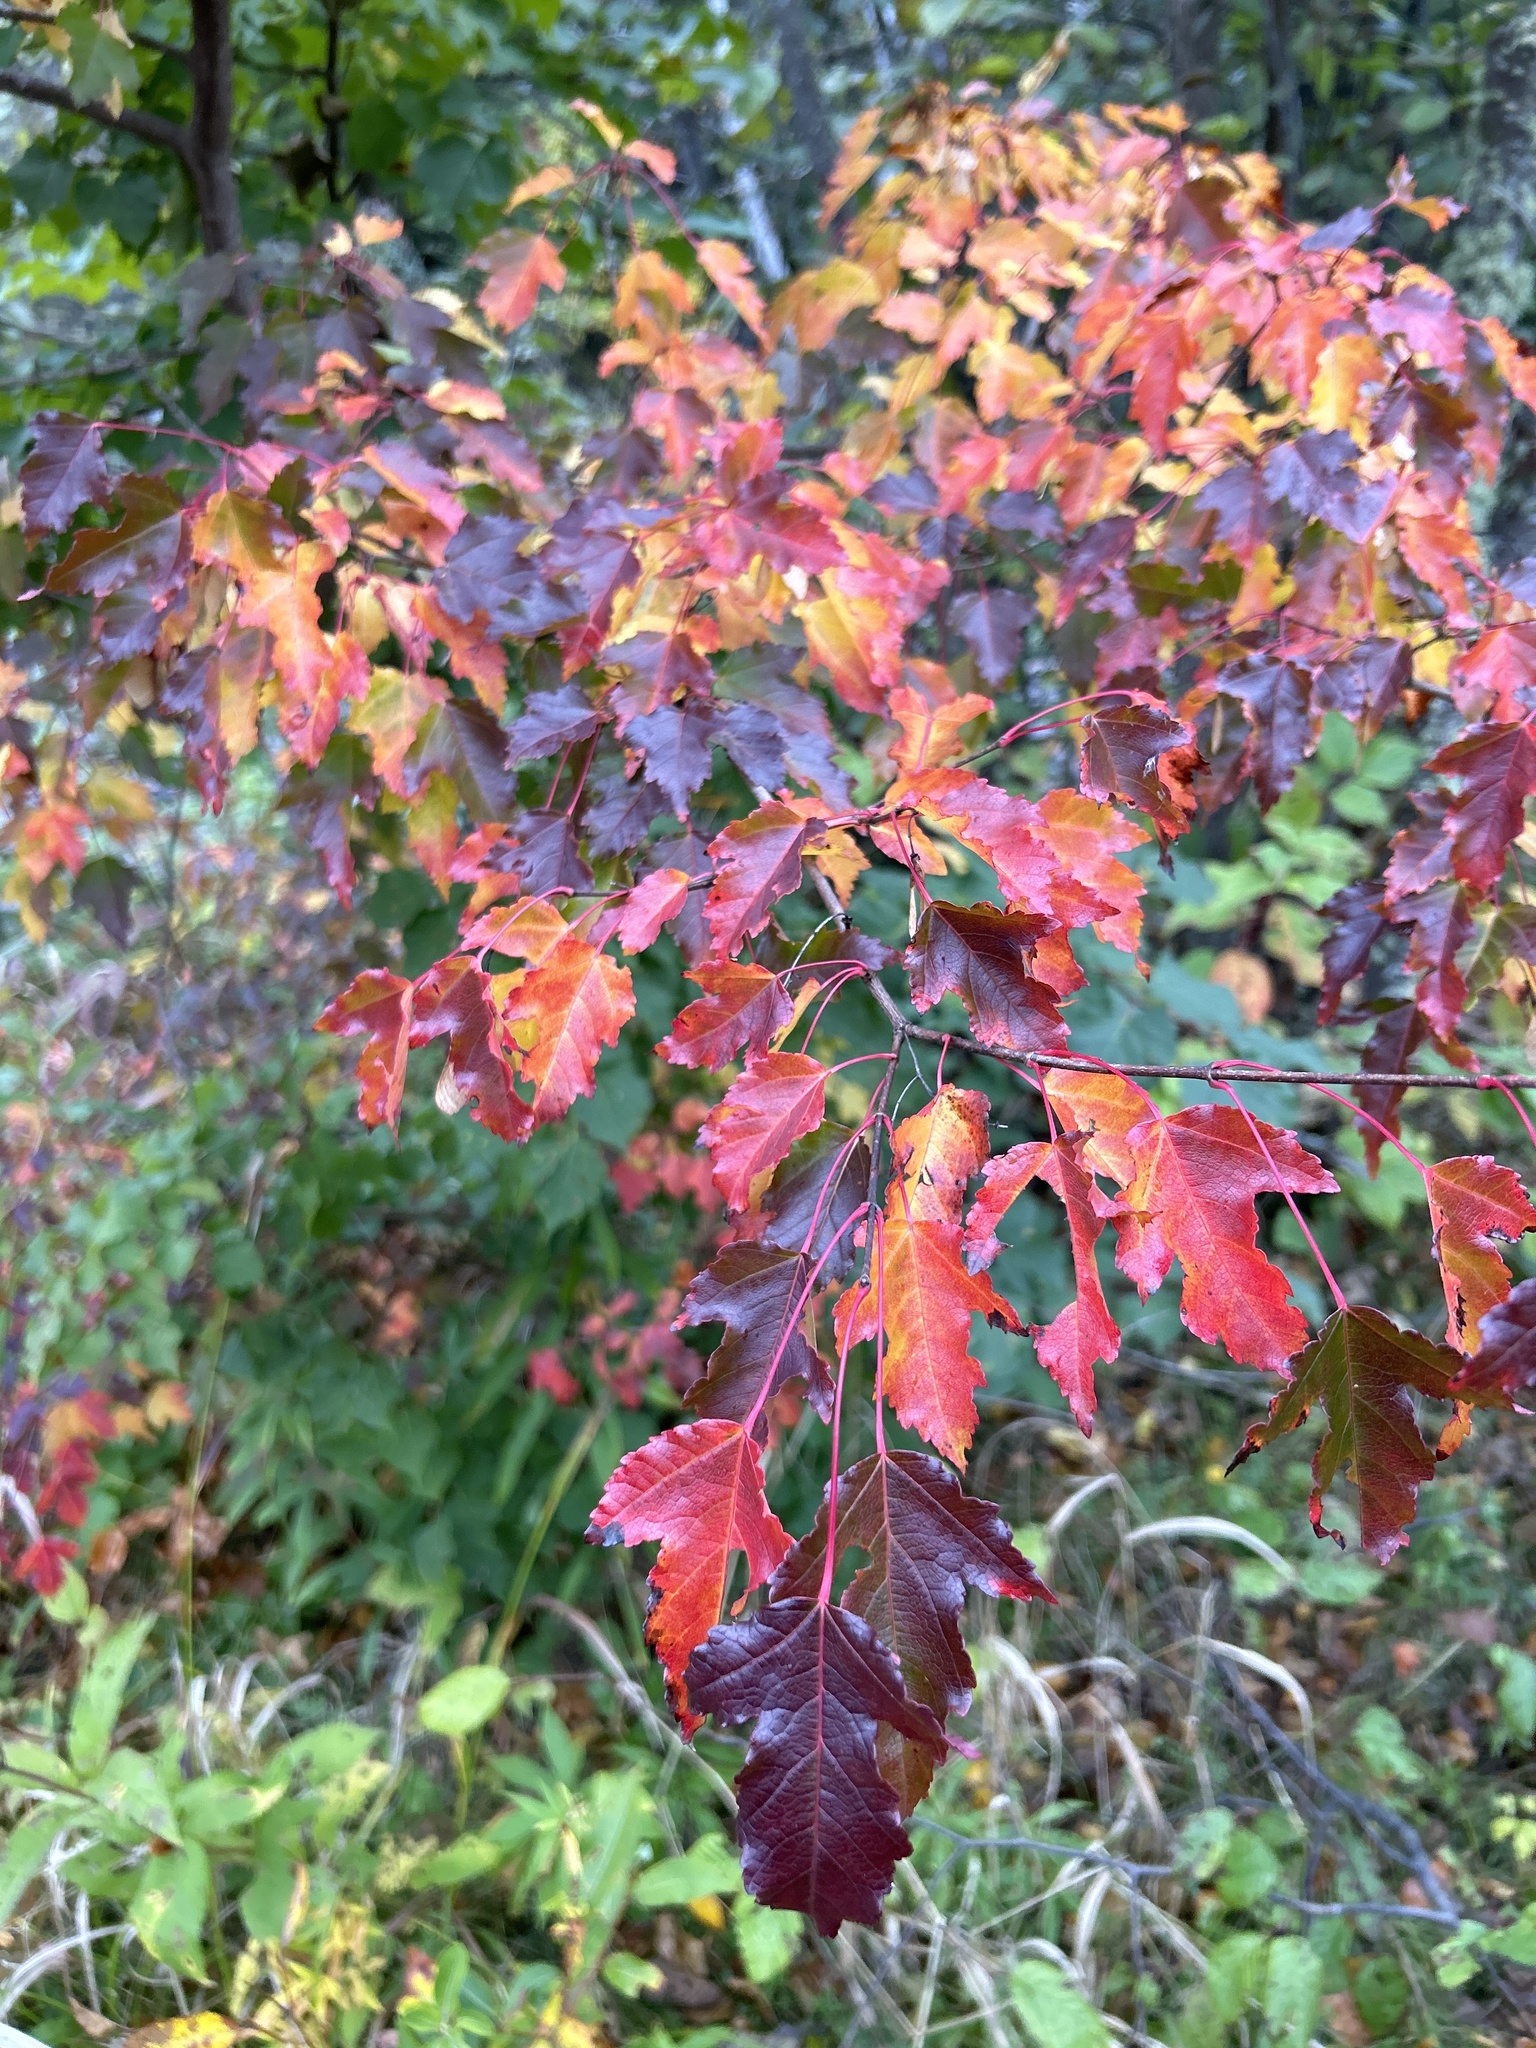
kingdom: Plantae
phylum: Tracheophyta
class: Magnoliopsida
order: Sapindales
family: Sapindaceae
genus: Acer
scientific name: Acer tataricum
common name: Tartar maple
